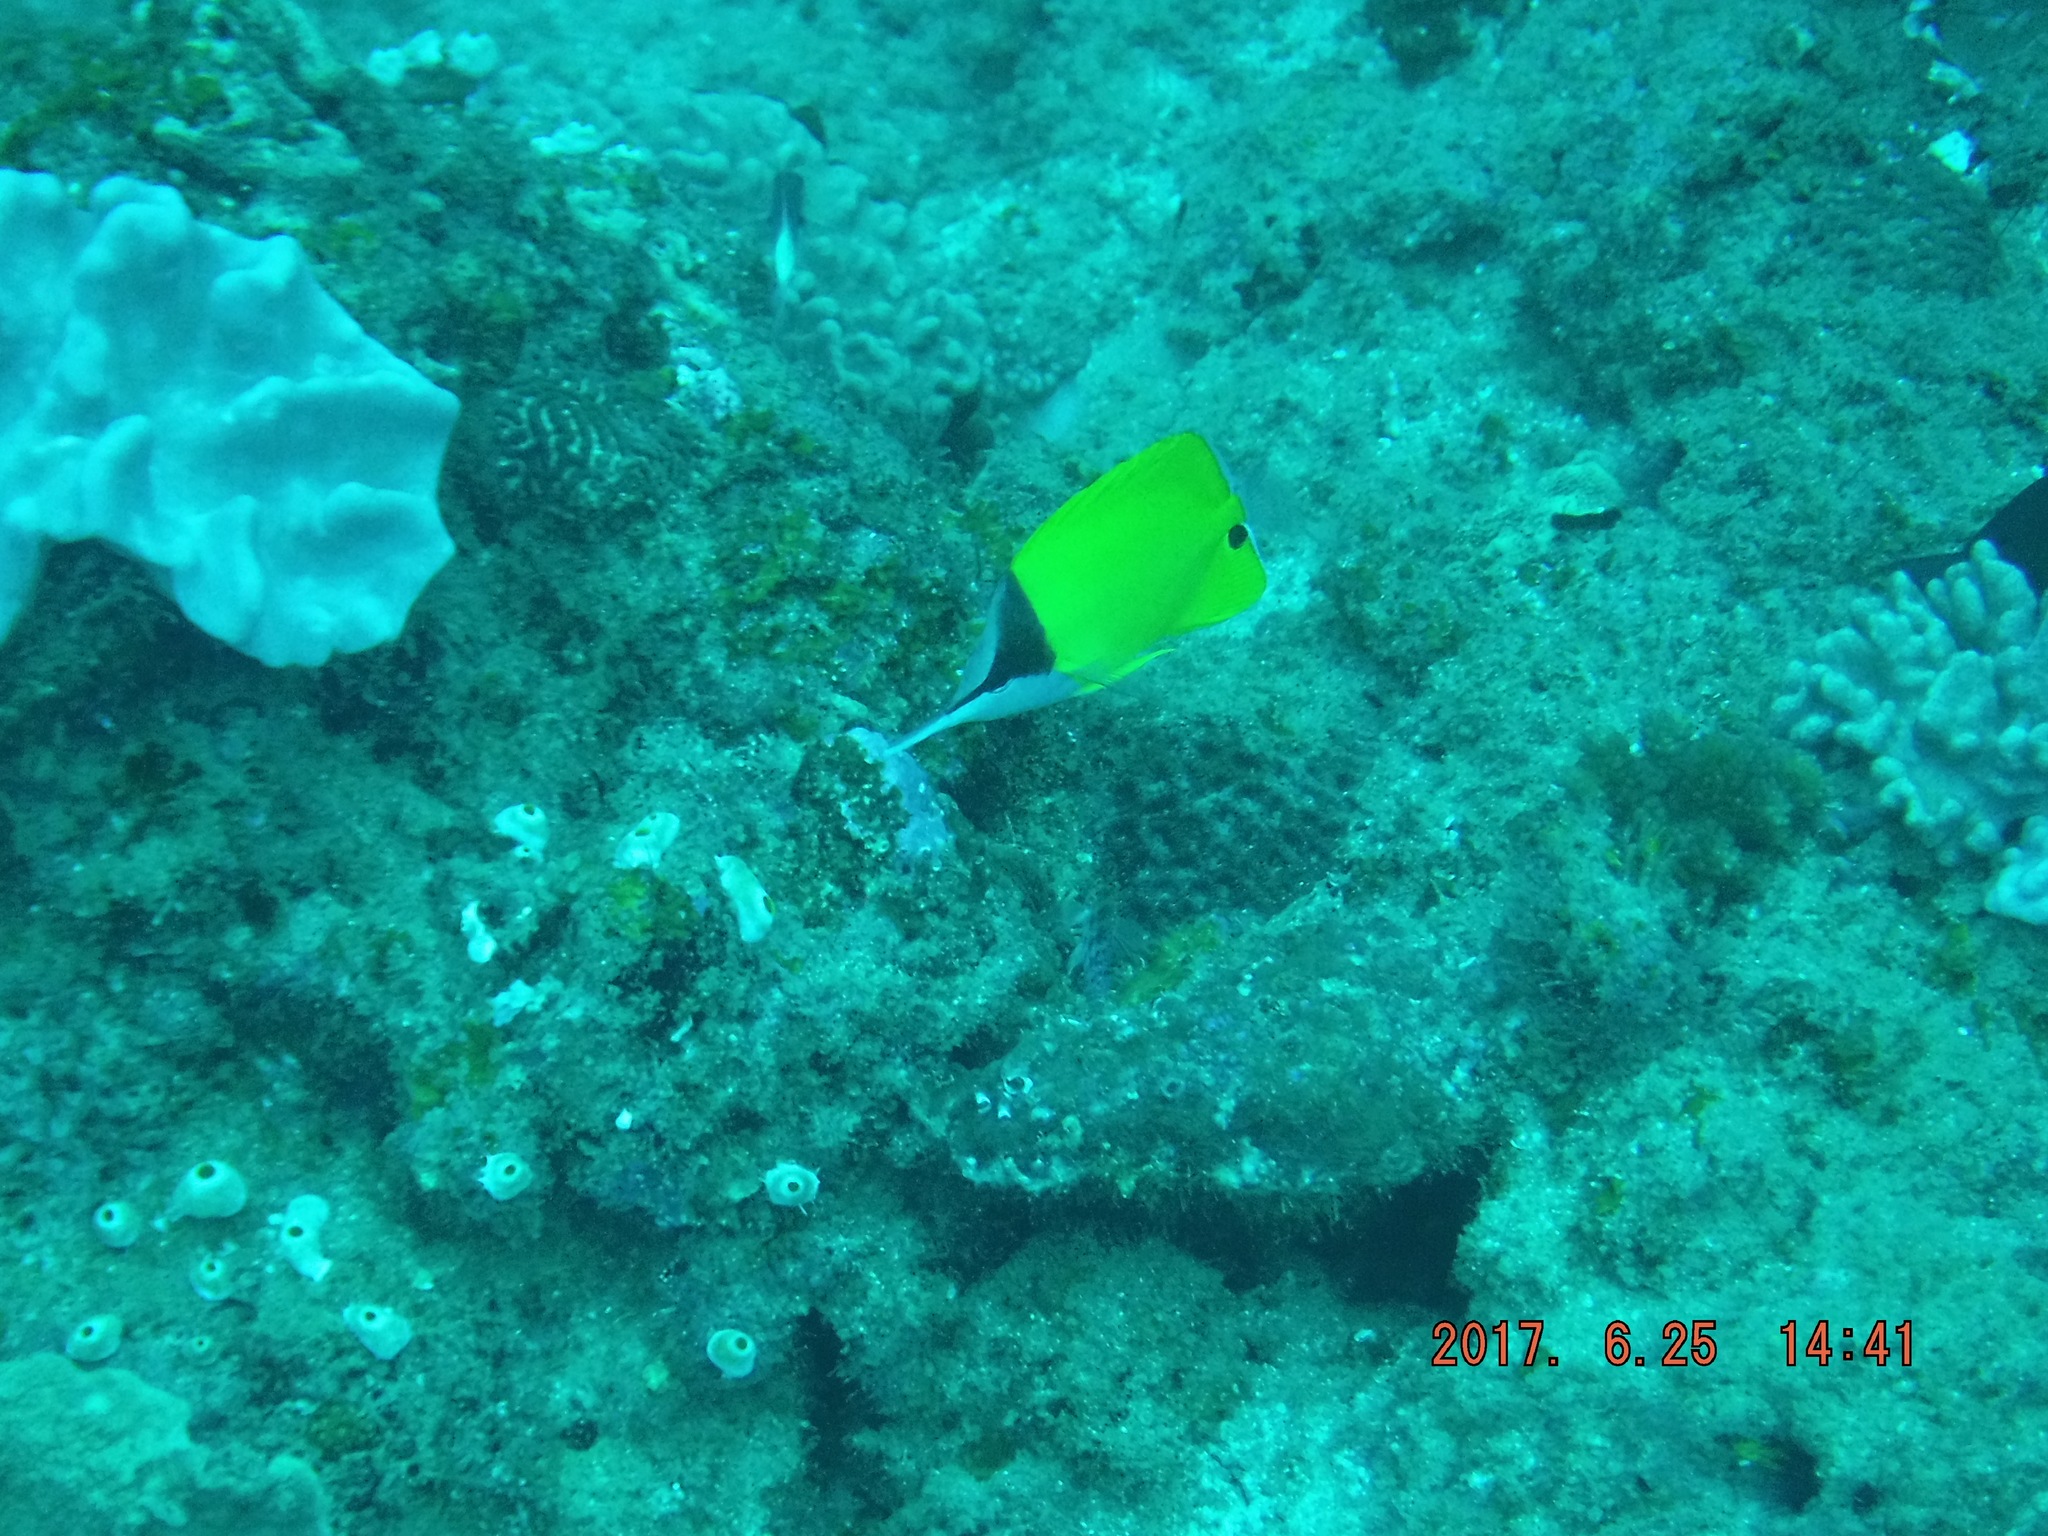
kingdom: Animalia
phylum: Chordata
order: Perciformes
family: Chaetodontidae
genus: Forcipiger
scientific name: Forcipiger flavissimus
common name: Forcepsfish
